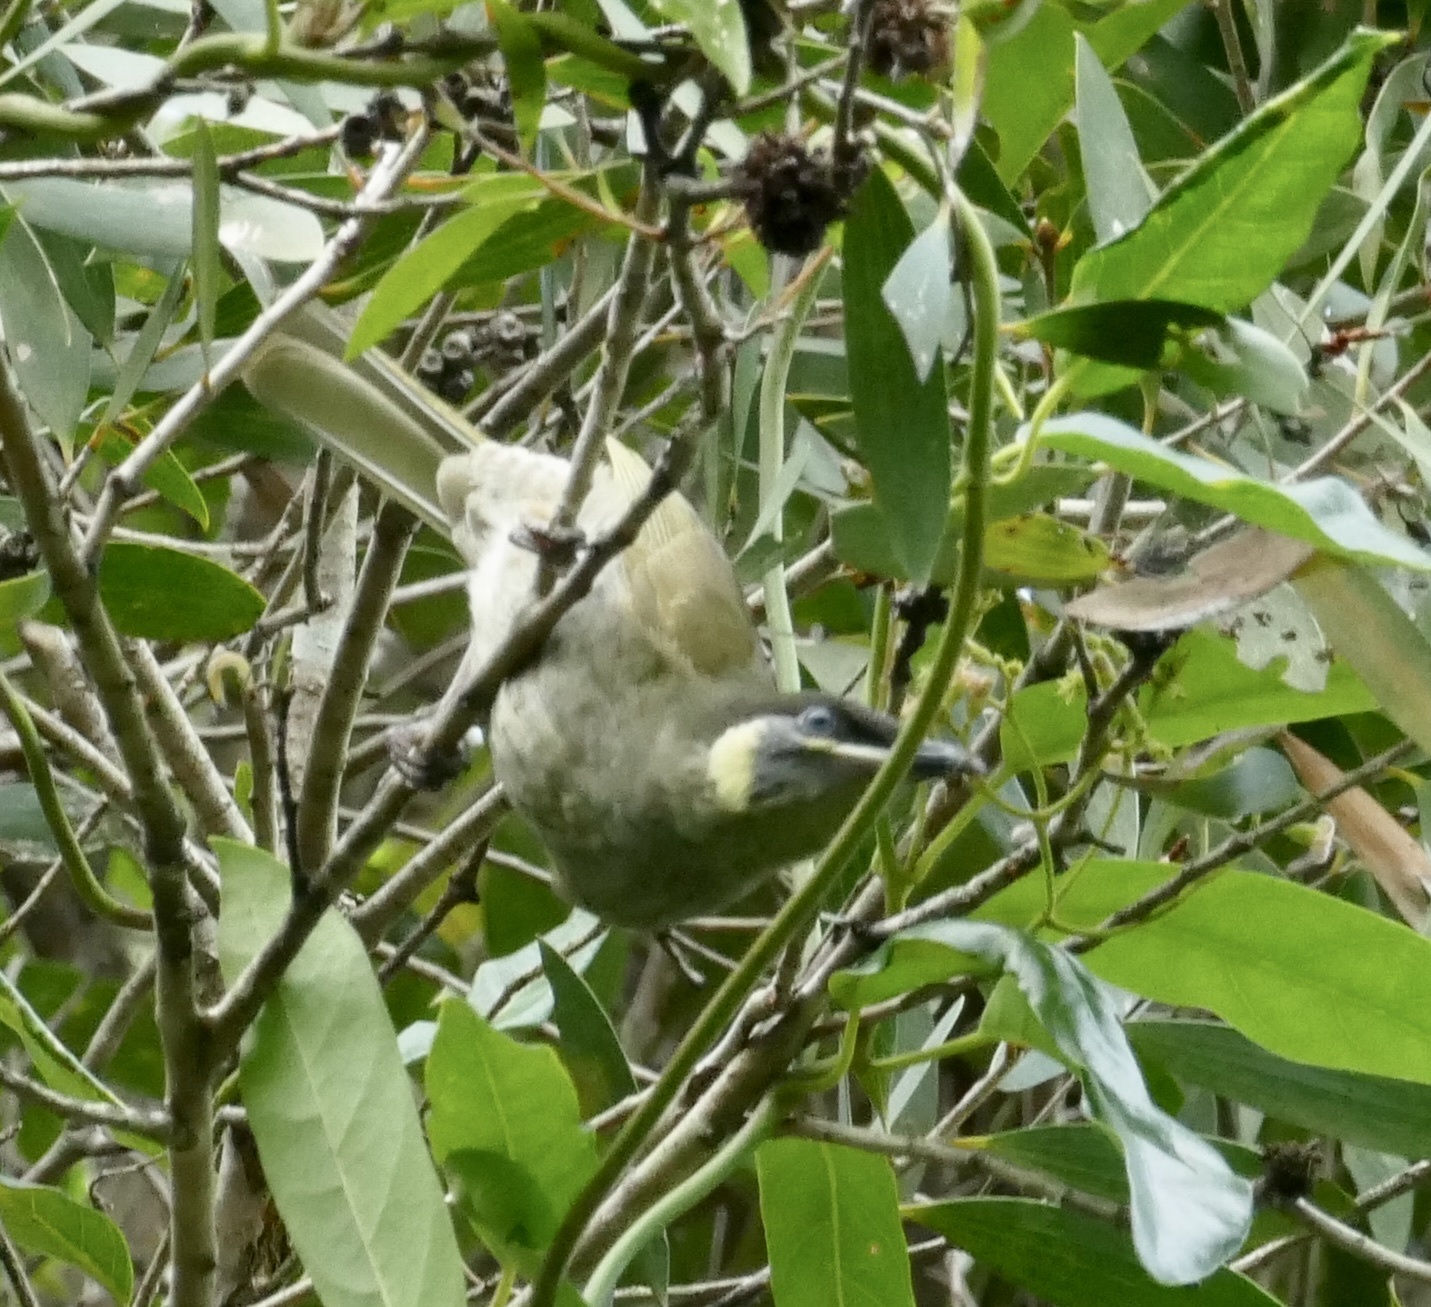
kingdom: Animalia
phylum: Chordata
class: Aves
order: Passeriformes
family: Meliphagidae
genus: Meliphaga
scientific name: Meliphaga lewinii
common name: Lewin's honeyeater
